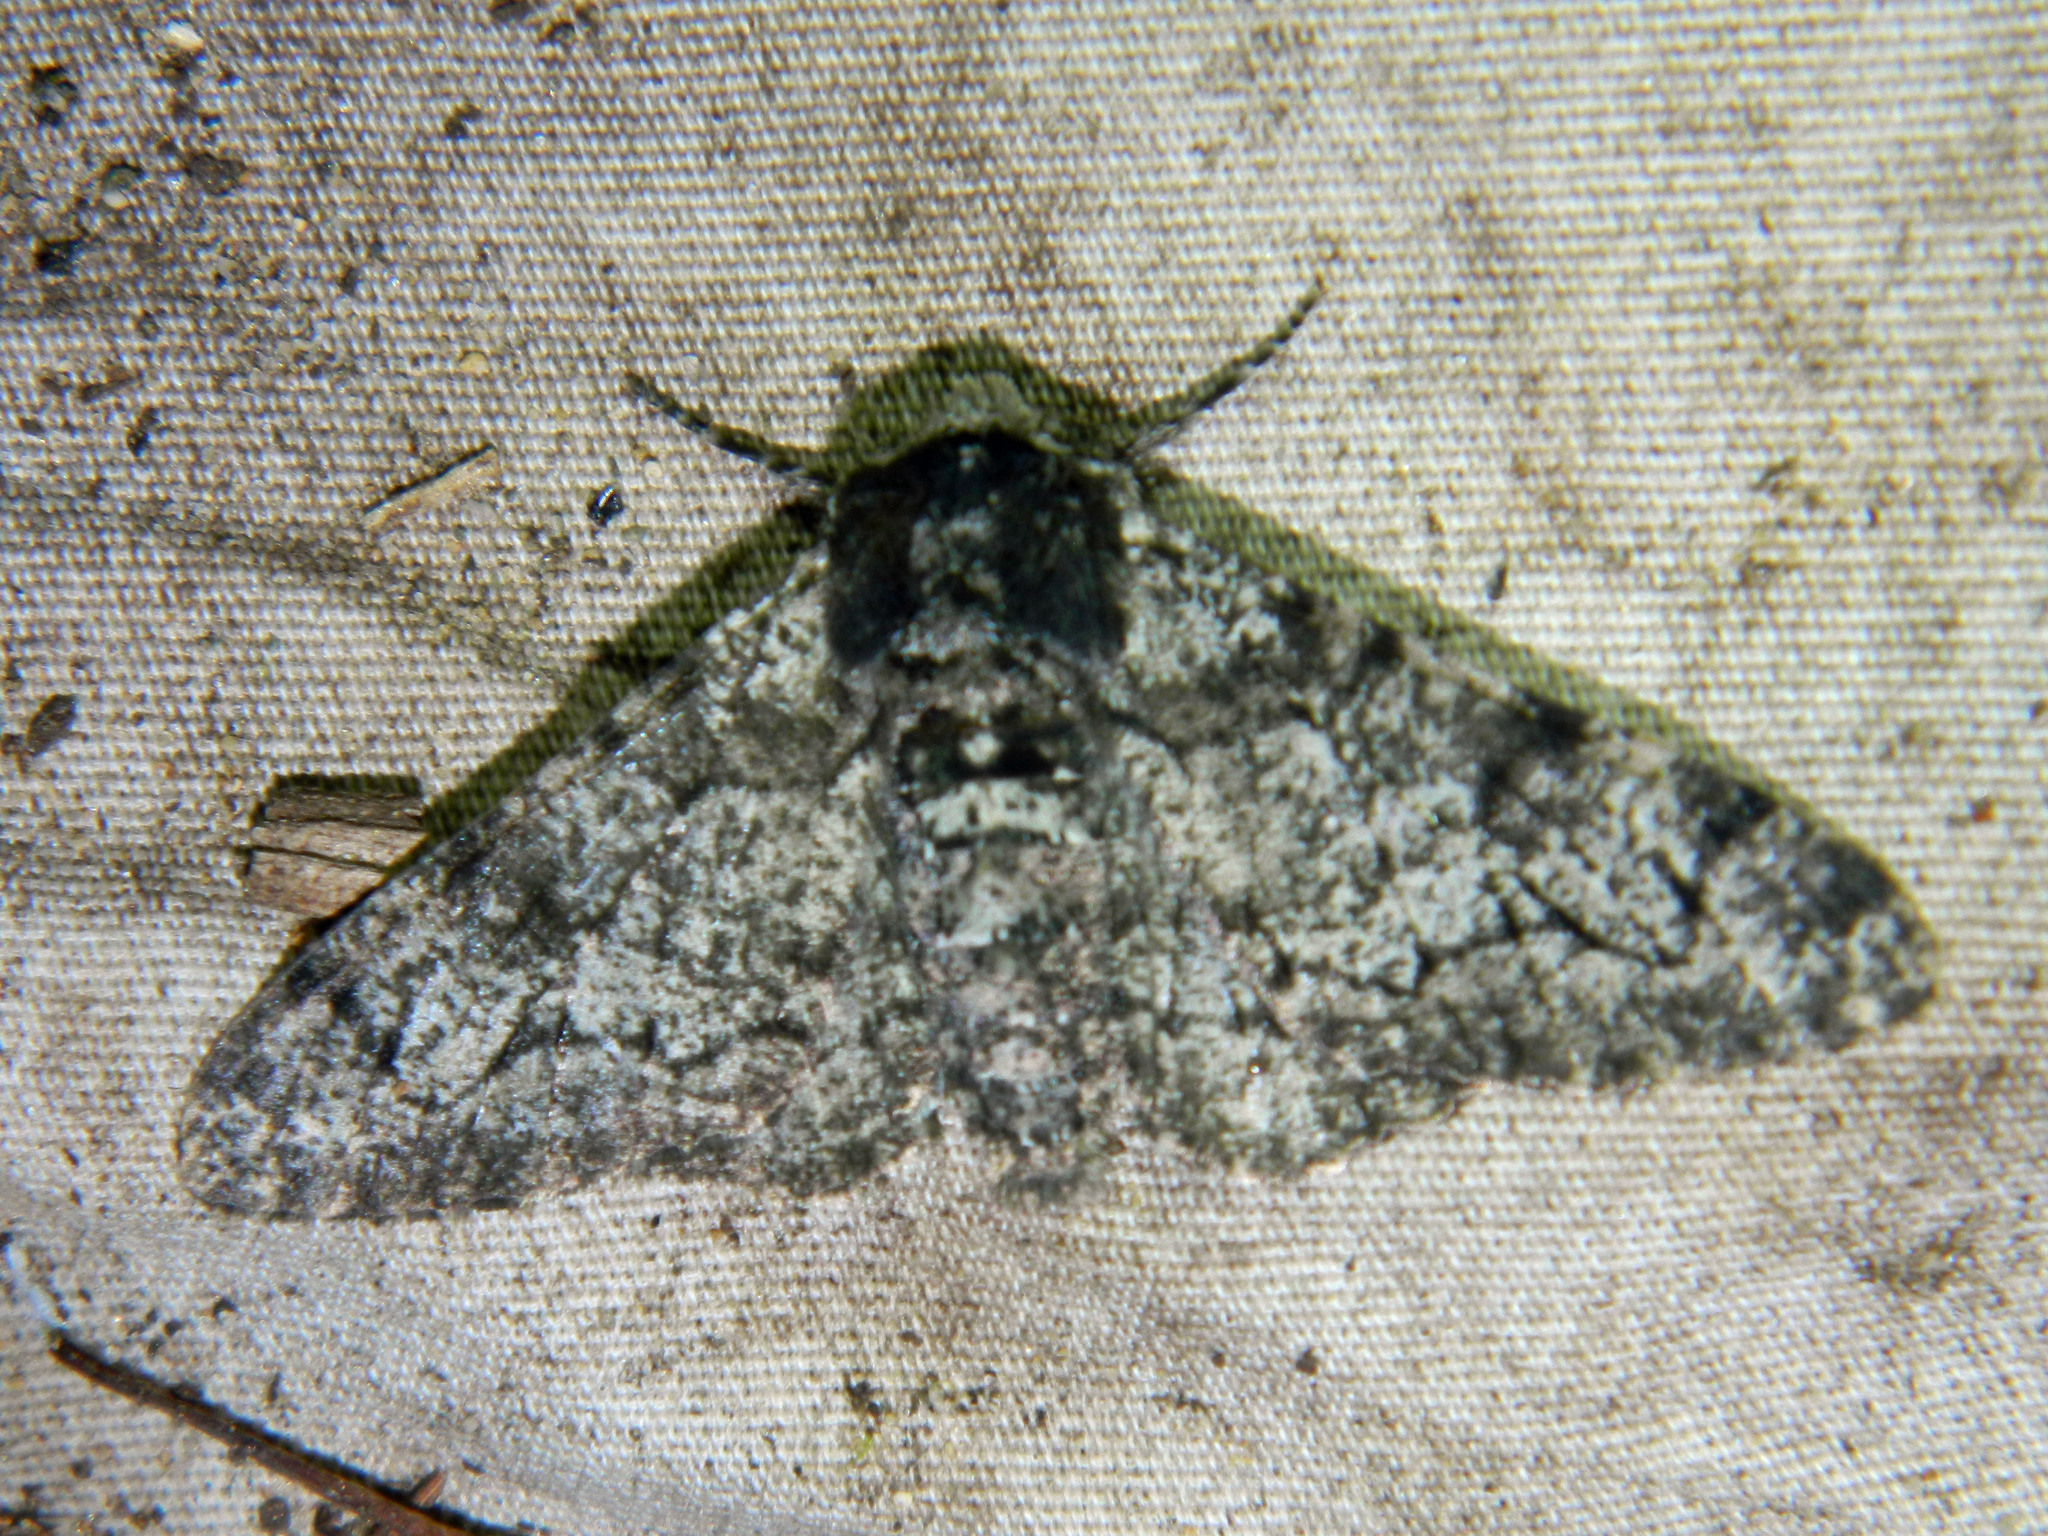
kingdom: Animalia
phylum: Arthropoda
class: Insecta
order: Lepidoptera
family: Geometridae
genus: Biston
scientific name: Biston betularia
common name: Peppered moth
